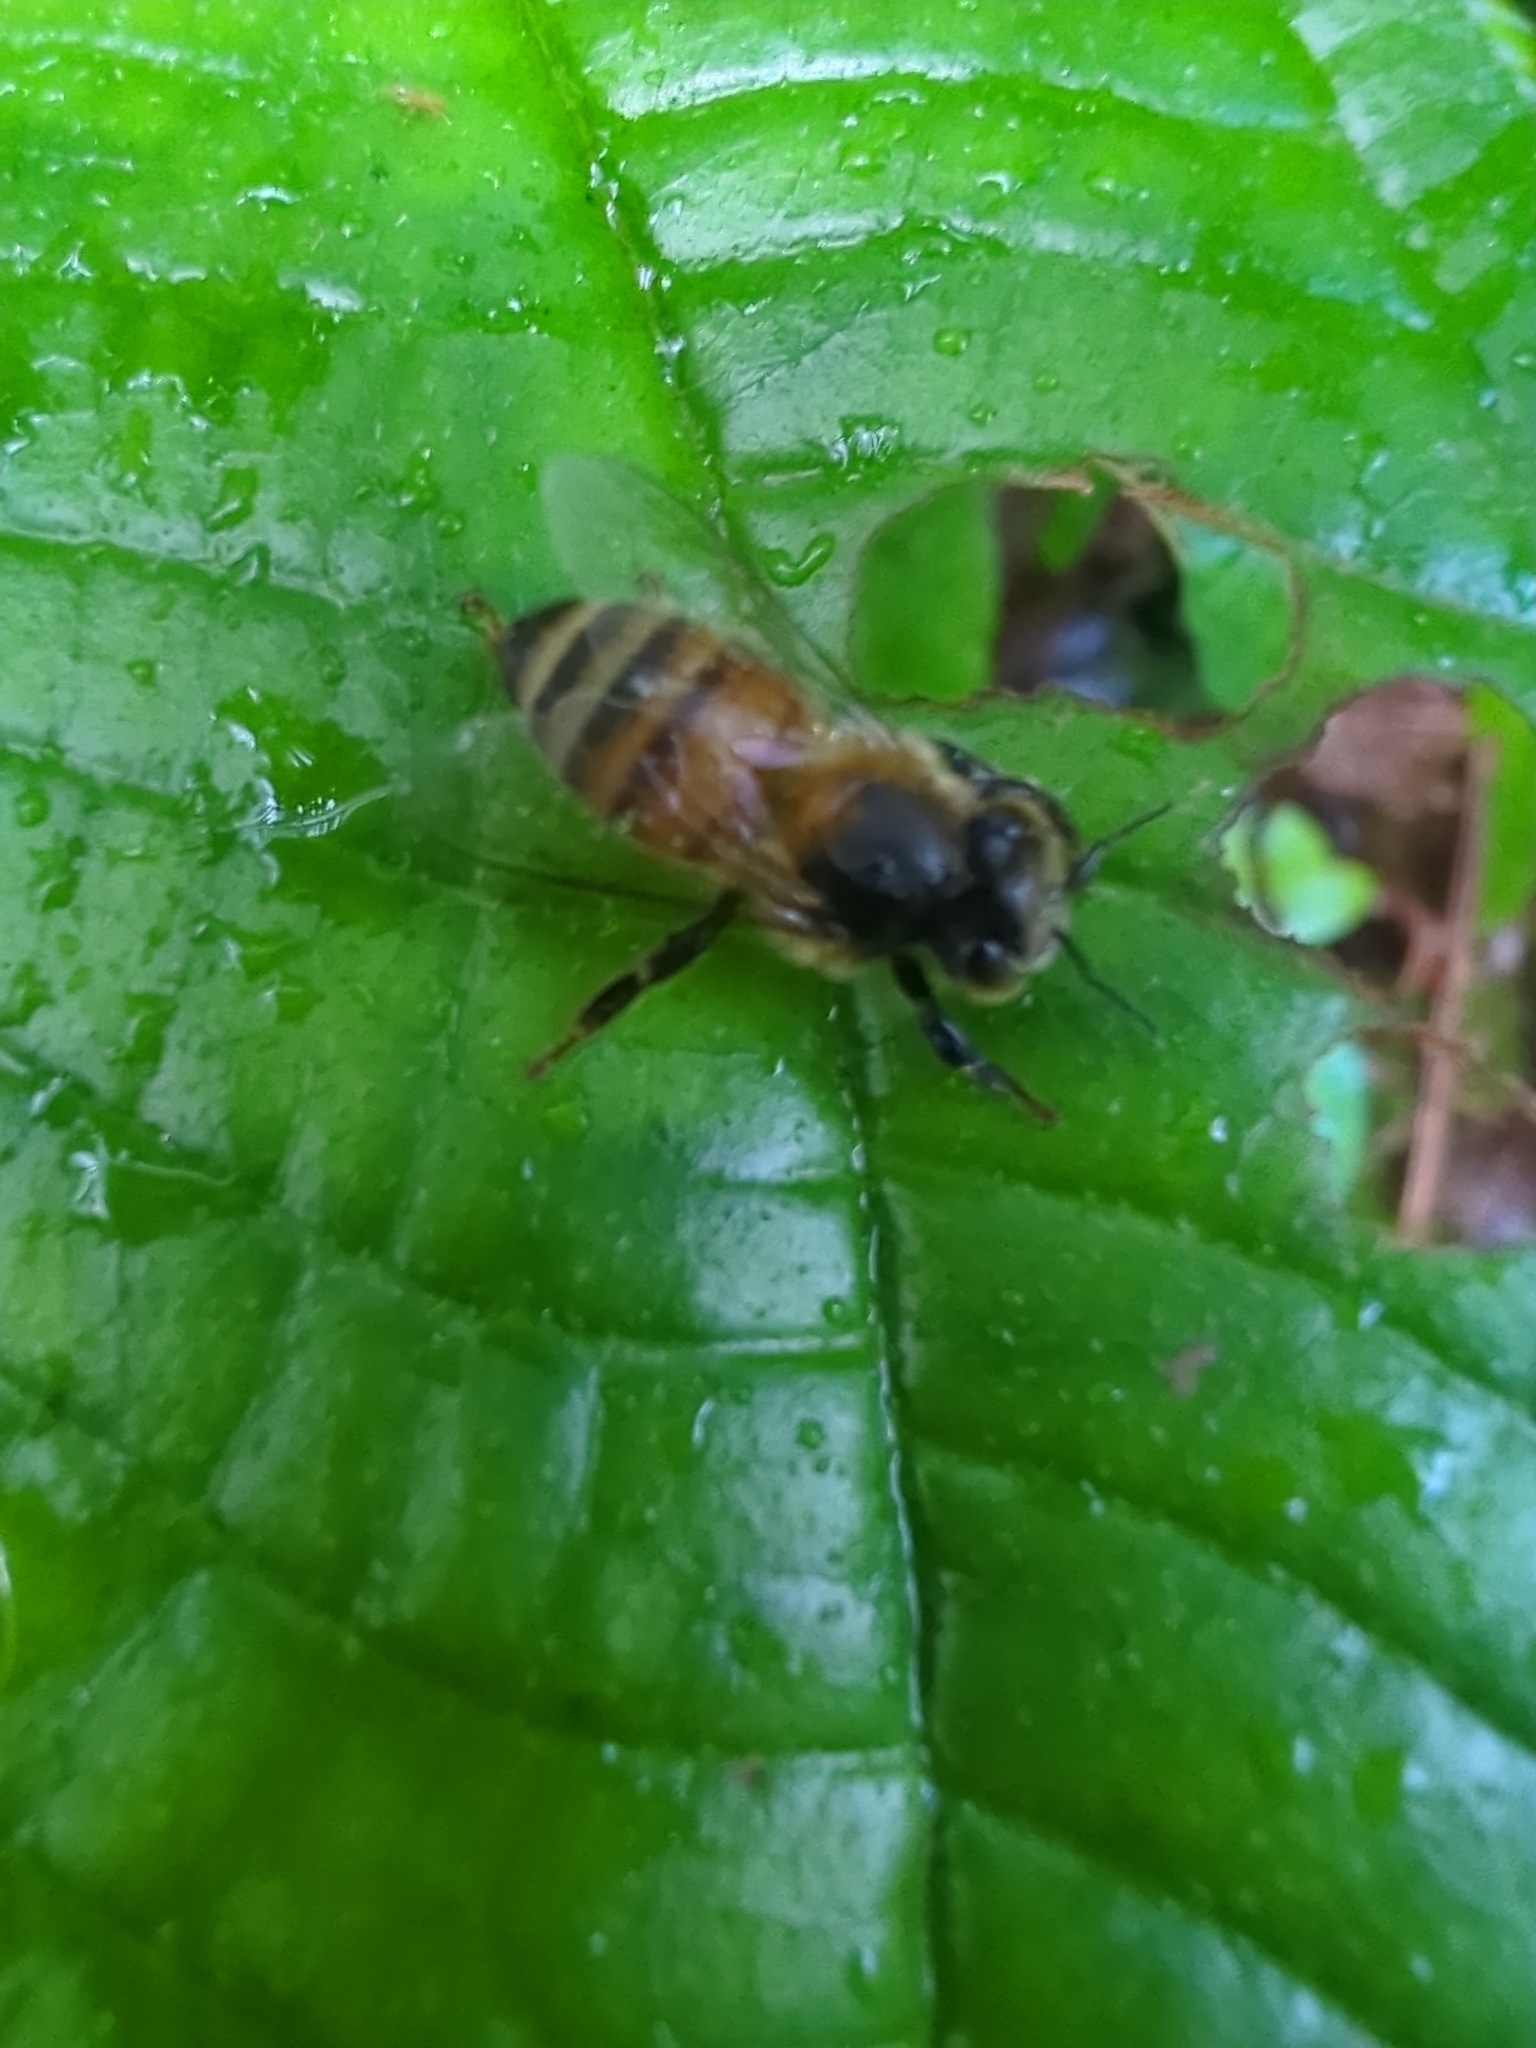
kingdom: Animalia
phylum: Arthropoda
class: Insecta
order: Hymenoptera
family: Apidae
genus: Apis
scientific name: Apis mellifera
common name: Honey bee
